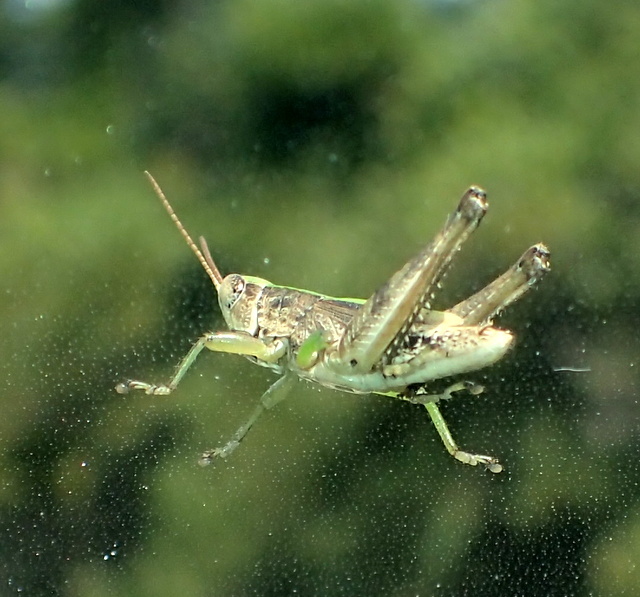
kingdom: Animalia
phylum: Arthropoda
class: Insecta
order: Orthoptera
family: Acrididae
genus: Dichromorpha
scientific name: Dichromorpha viridis
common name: Short-winged green grasshopper
